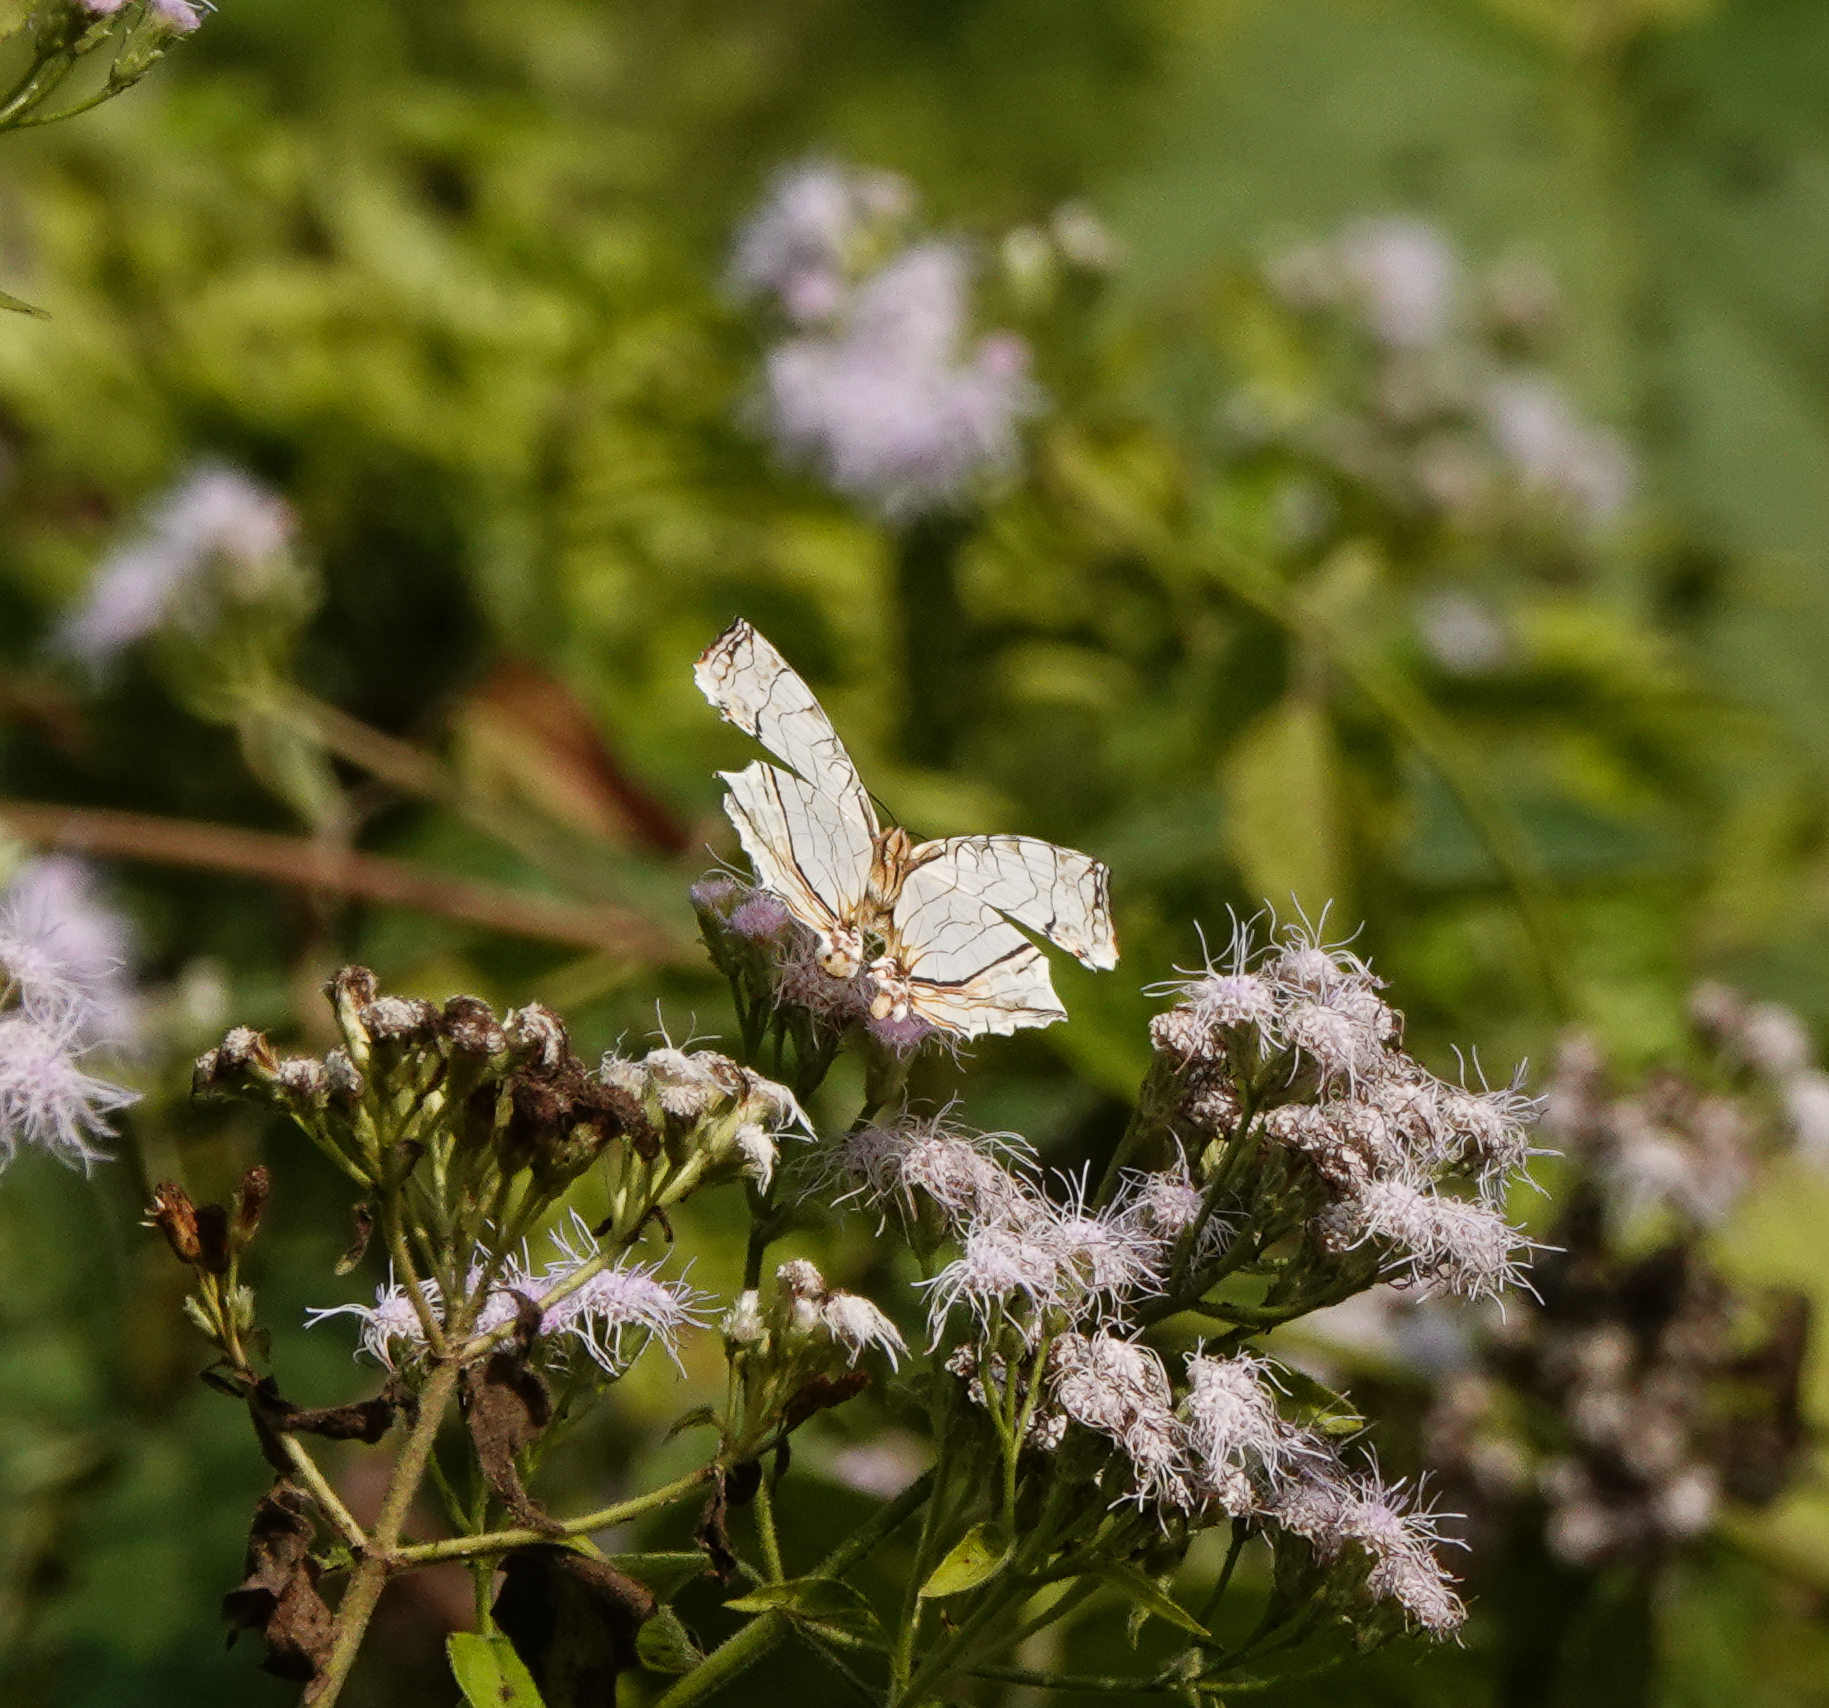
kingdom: Animalia
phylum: Arthropoda
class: Insecta
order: Lepidoptera
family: Nymphalidae
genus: Cyrestis
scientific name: Cyrestis thyodamas
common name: Common mapwing
